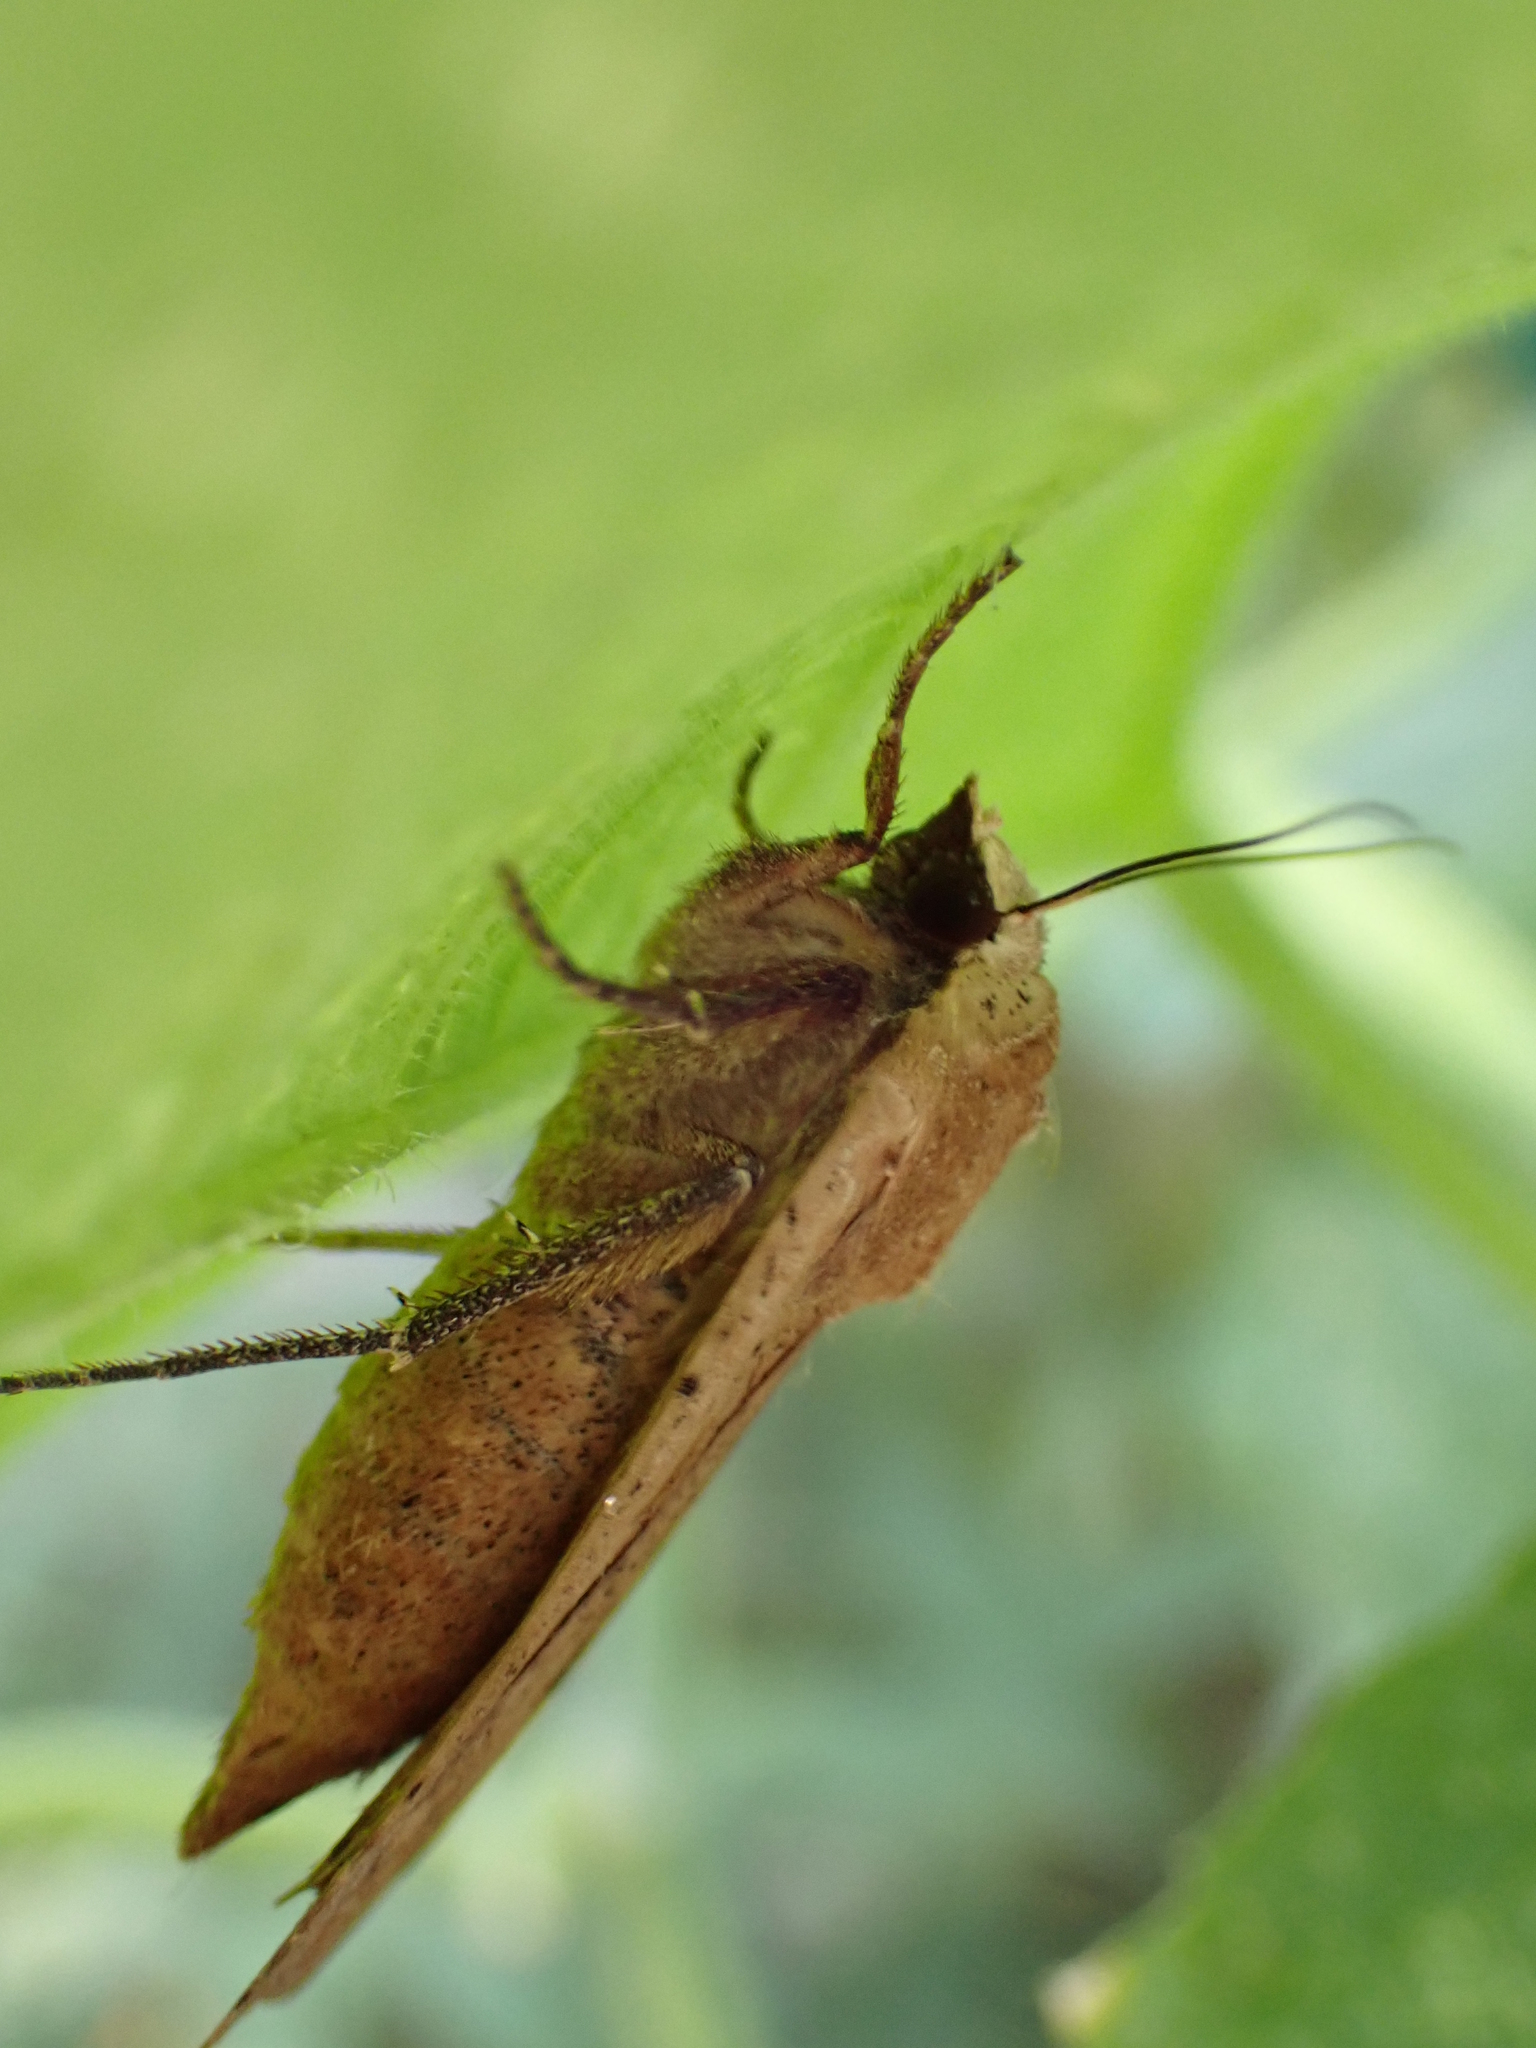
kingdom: Animalia
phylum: Arthropoda
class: Insecta
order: Lepidoptera
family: Noctuidae
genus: Noctua
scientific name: Noctua pronuba
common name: Large yellow underwing
